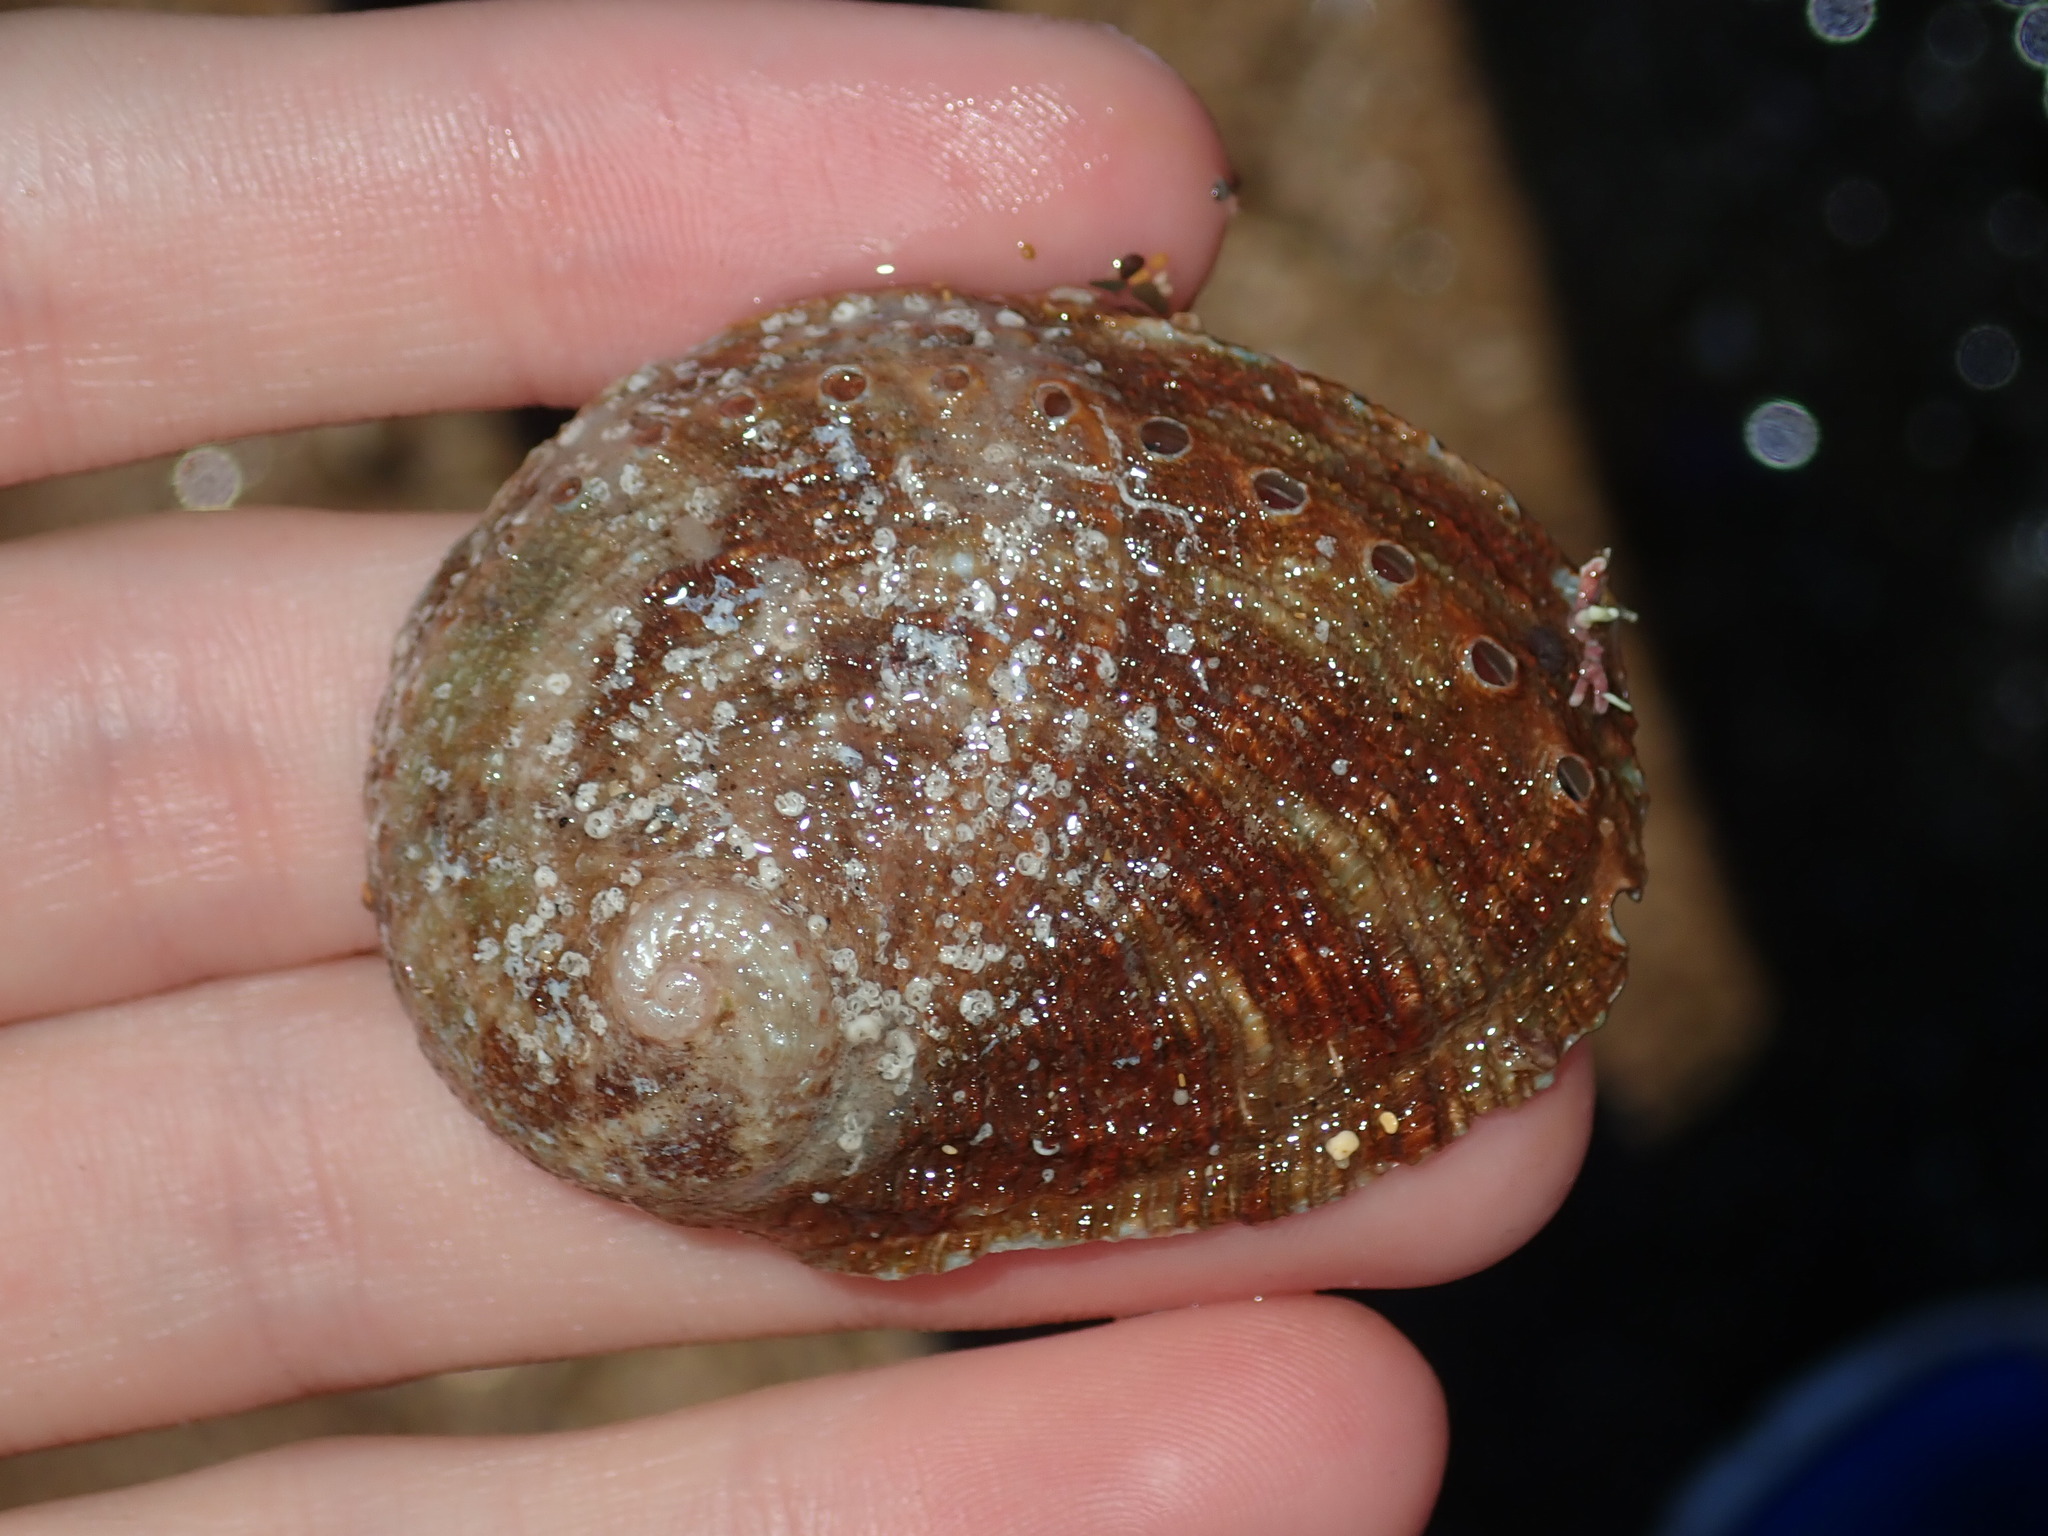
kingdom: Animalia
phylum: Mollusca
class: Gastropoda
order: Lepetellida
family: Haliotidae
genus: Haliotis
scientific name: Haliotis rubra
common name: Blacklip abalone
